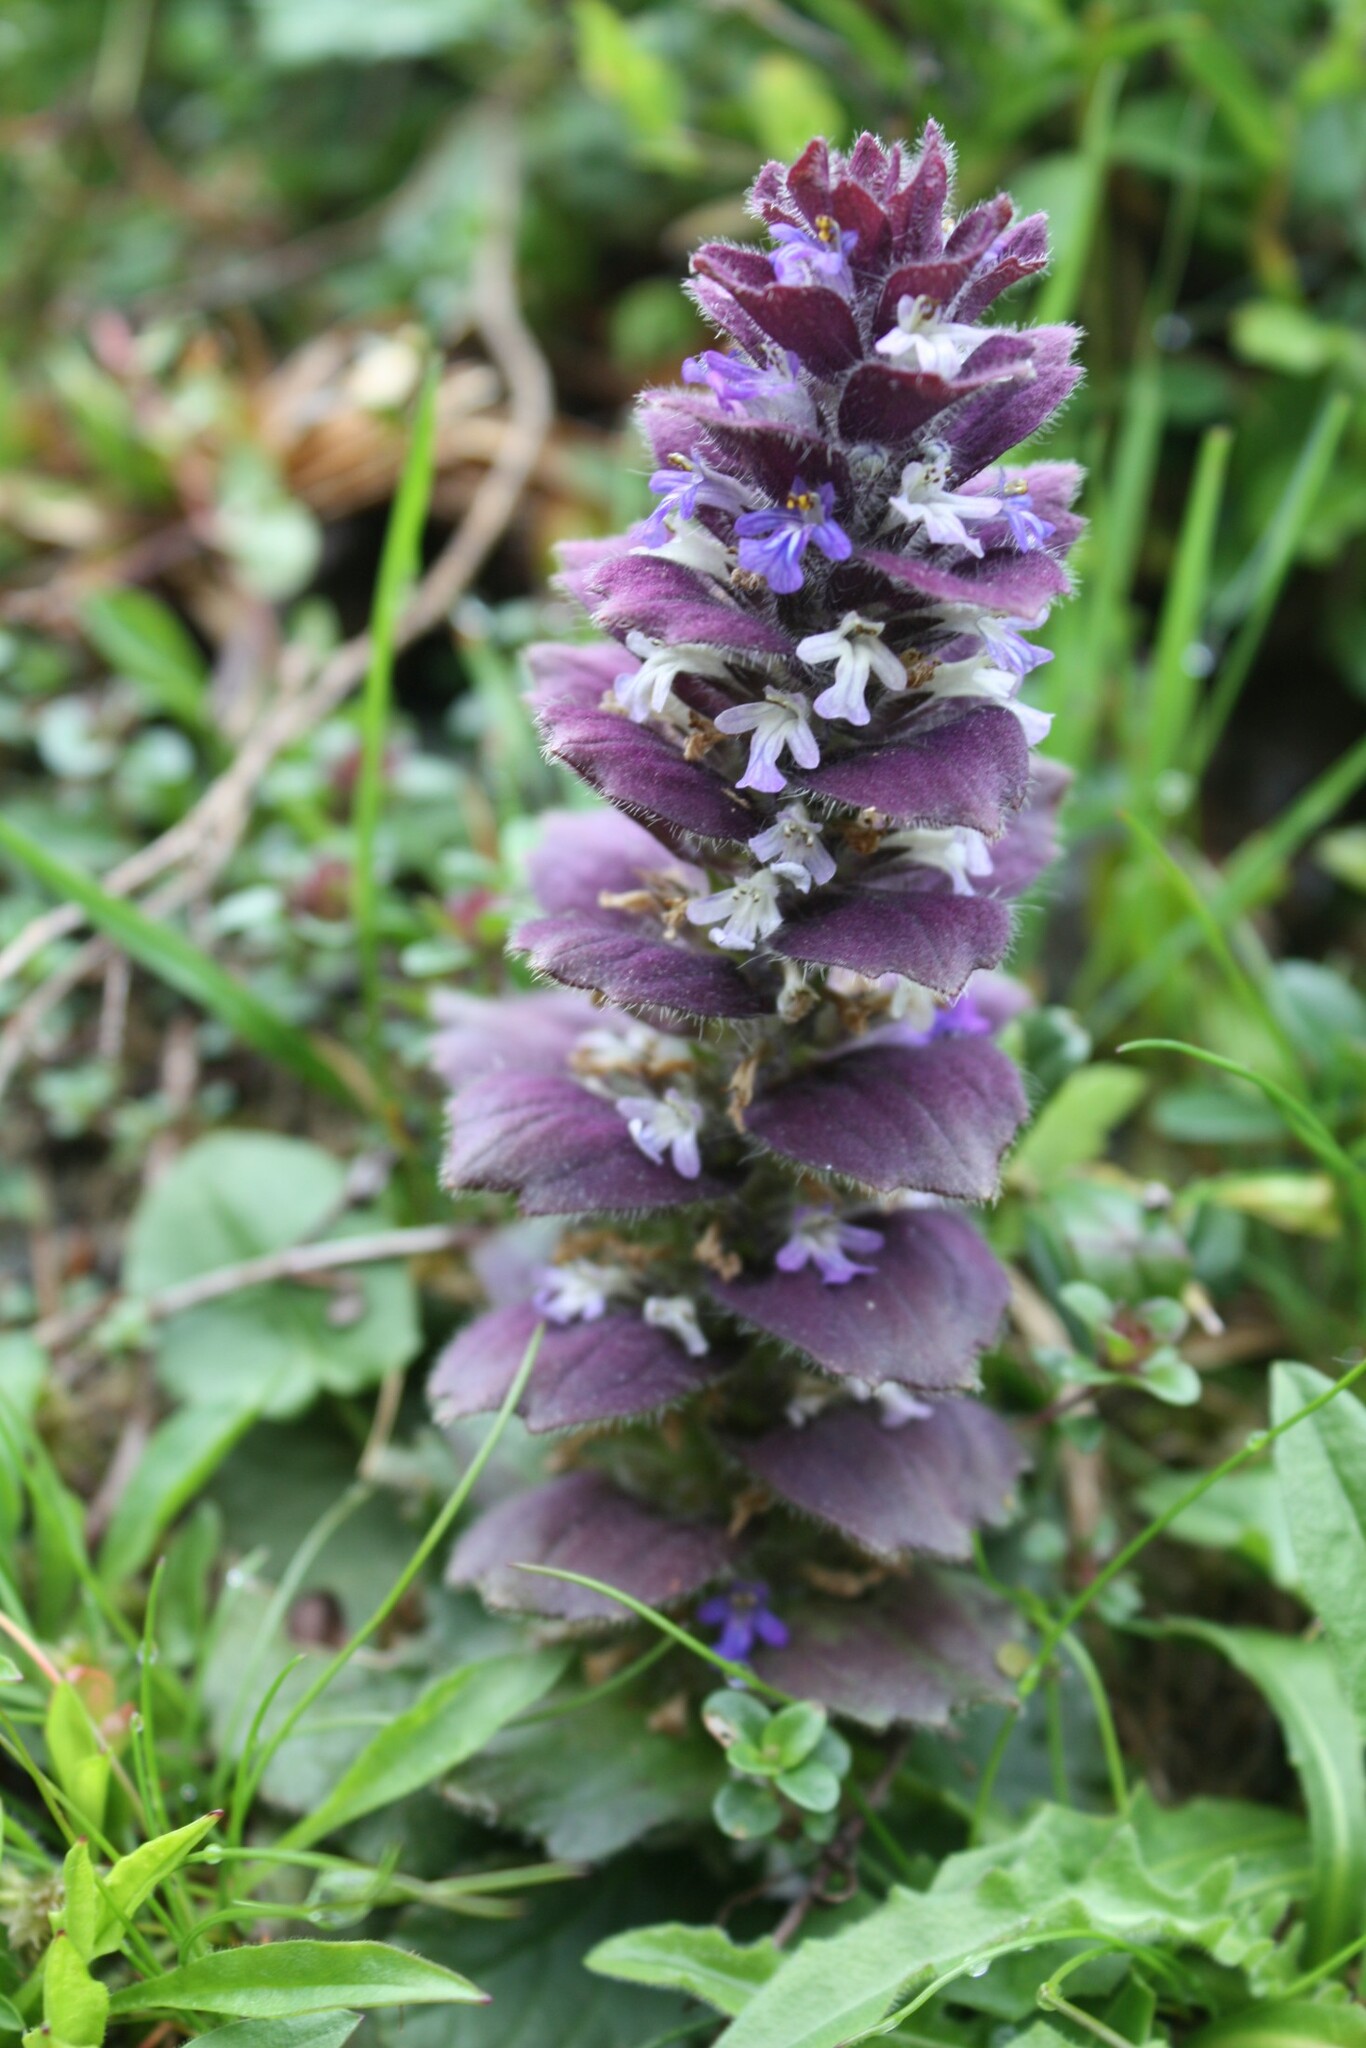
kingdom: Plantae
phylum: Tracheophyta
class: Magnoliopsida
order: Lamiales
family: Lamiaceae
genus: Ajuga
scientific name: Ajuga pyramidalis
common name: Pyramid bugle
